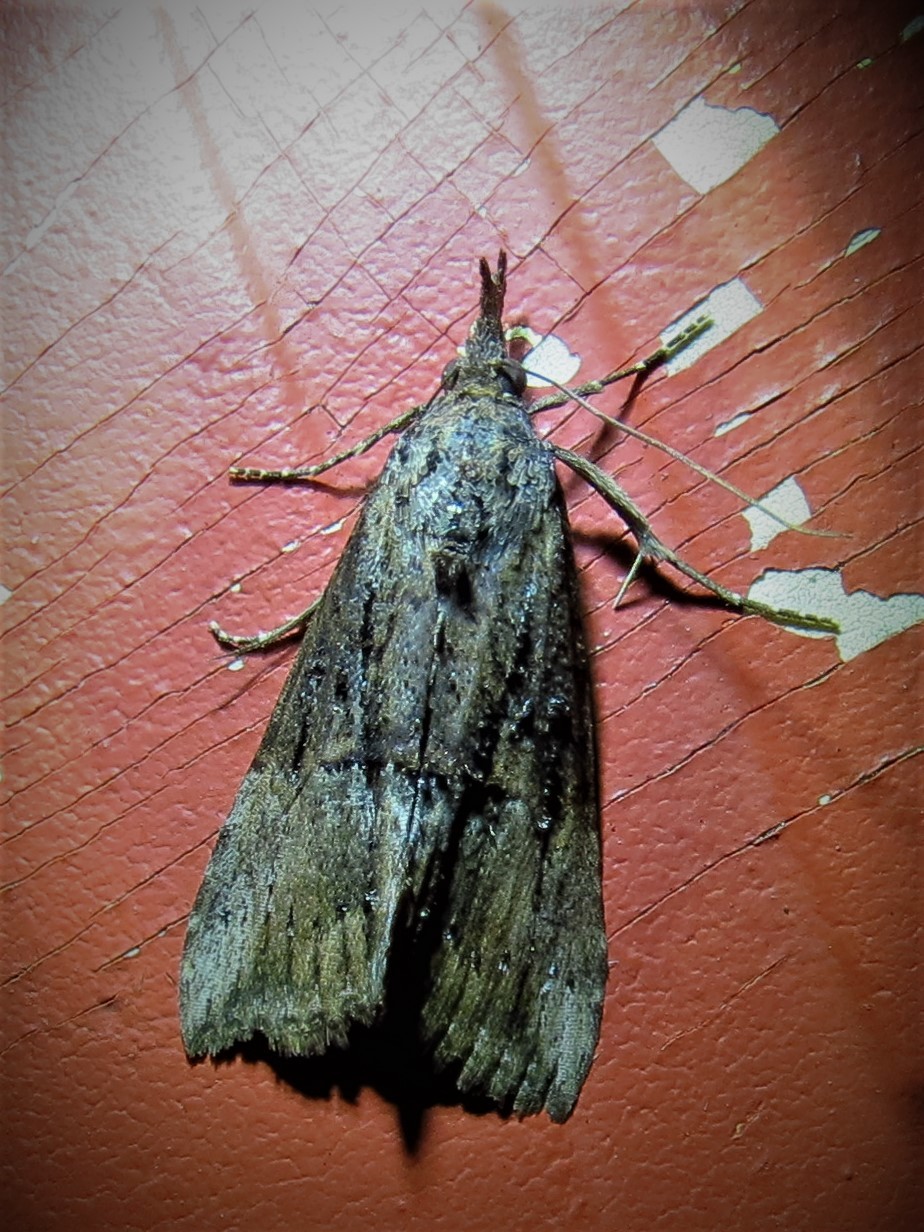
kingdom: Animalia
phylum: Arthropoda
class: Insecta
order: Lepidoptera
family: Erebidae
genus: Hypena
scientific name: Hypena scabra
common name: Green cloverworm
